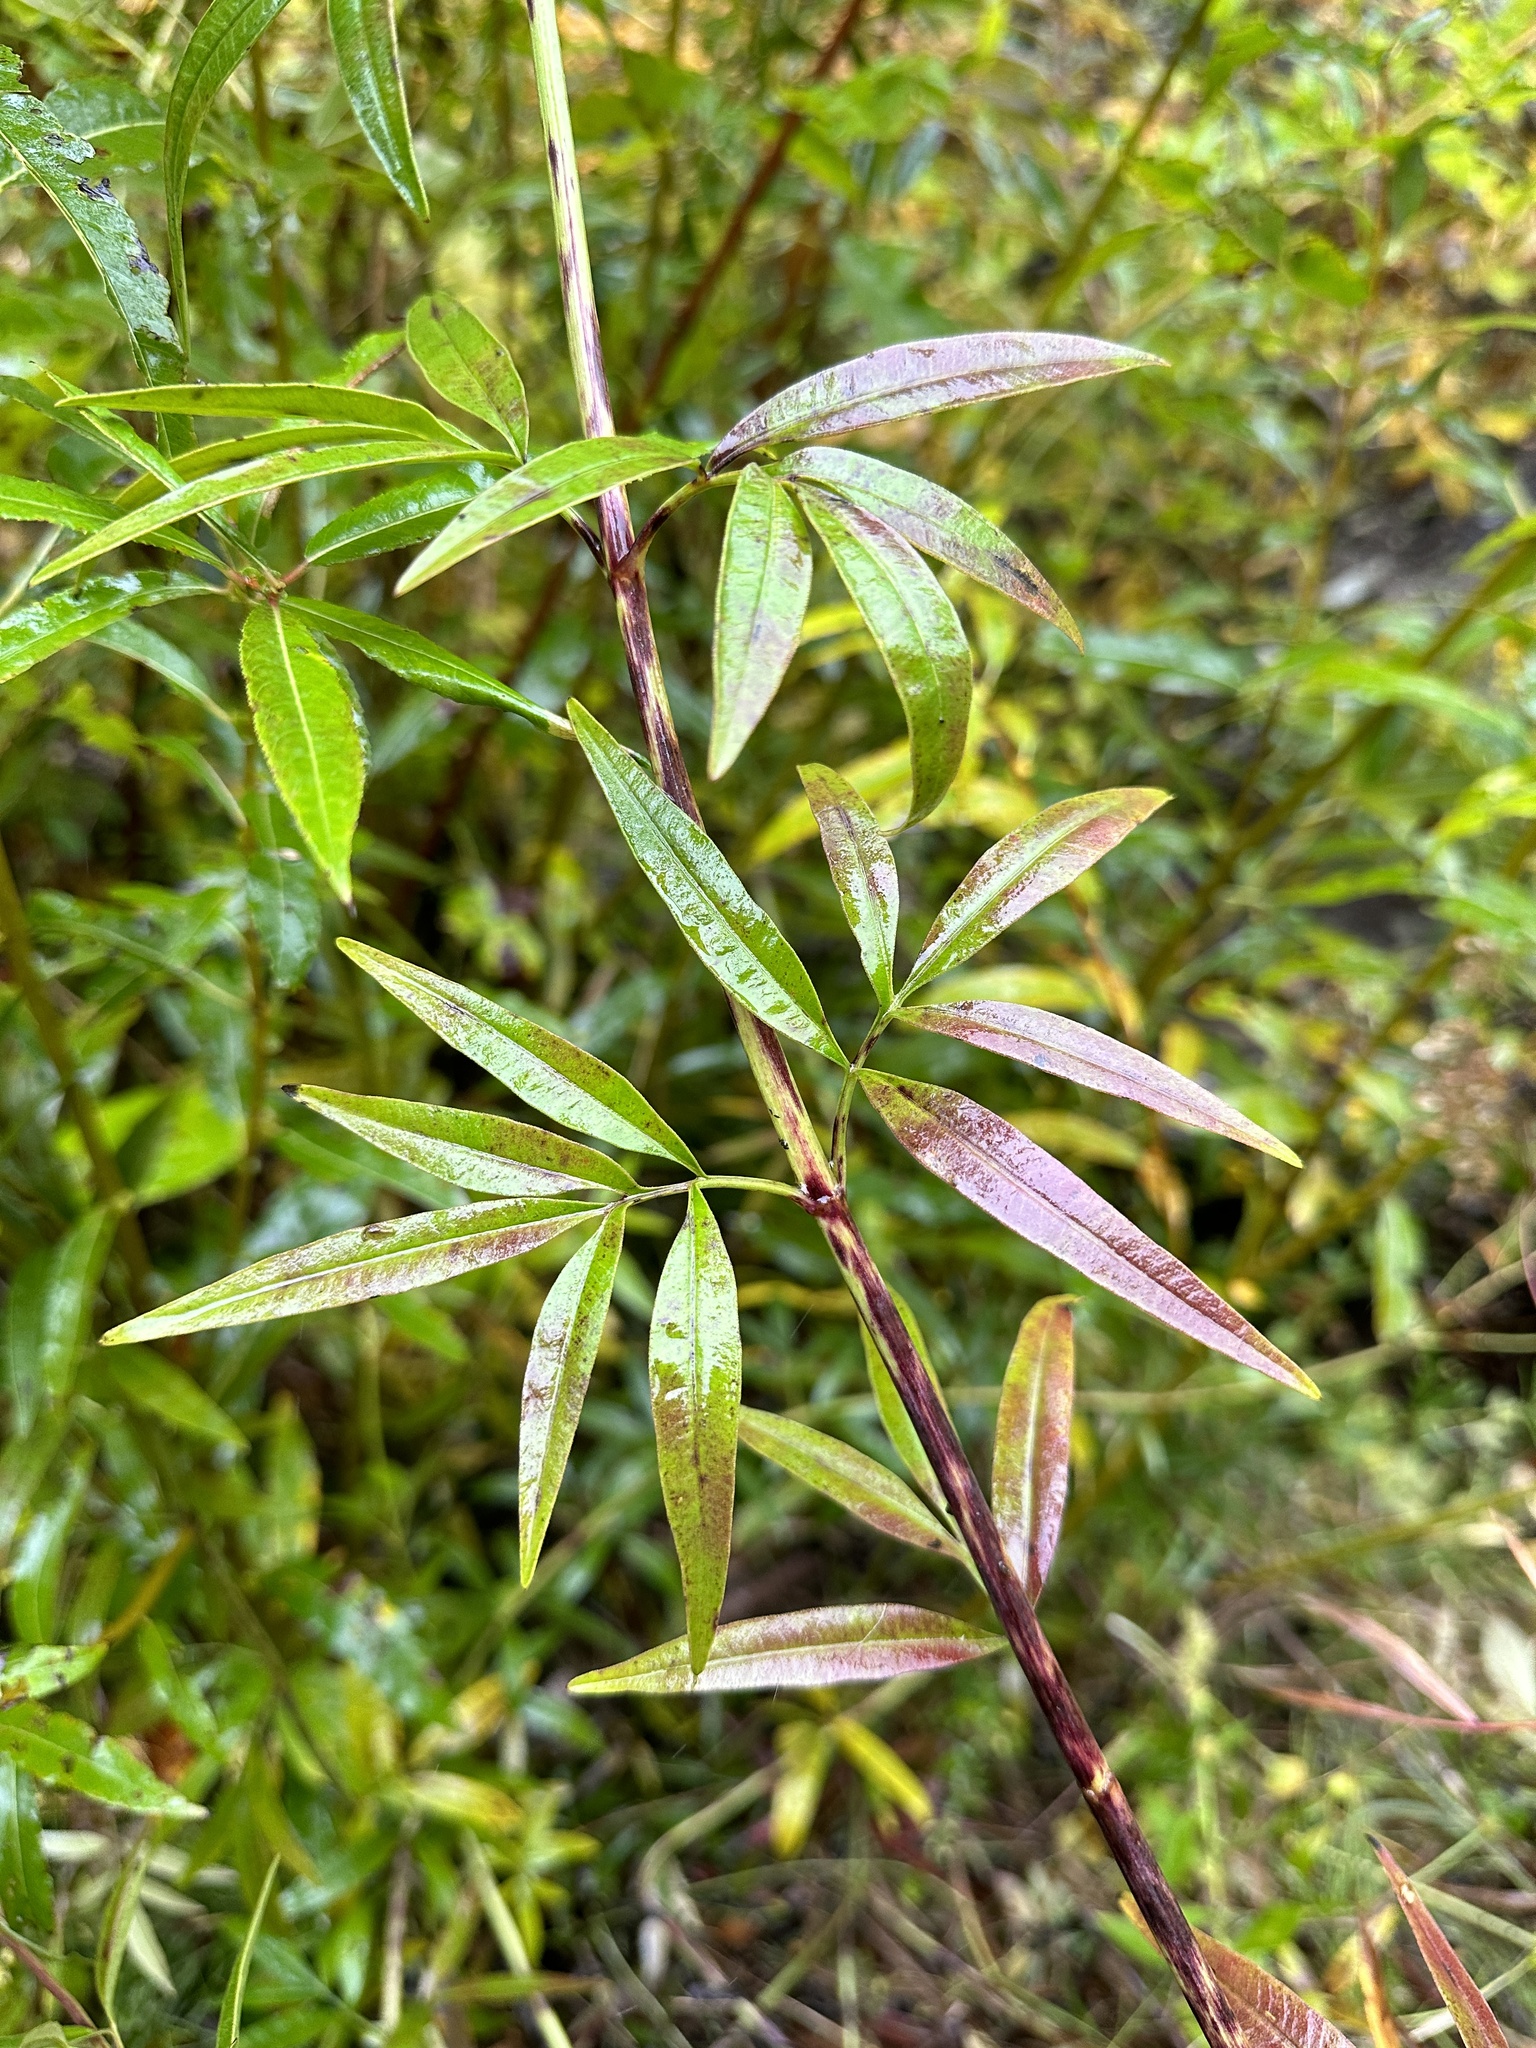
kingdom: Plantae
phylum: Tracheophyta
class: Magnoliopsida
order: Asterales
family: Asteraceae
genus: Coreopsis
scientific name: Coreopsis tripteris
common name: Tall coreopsis
